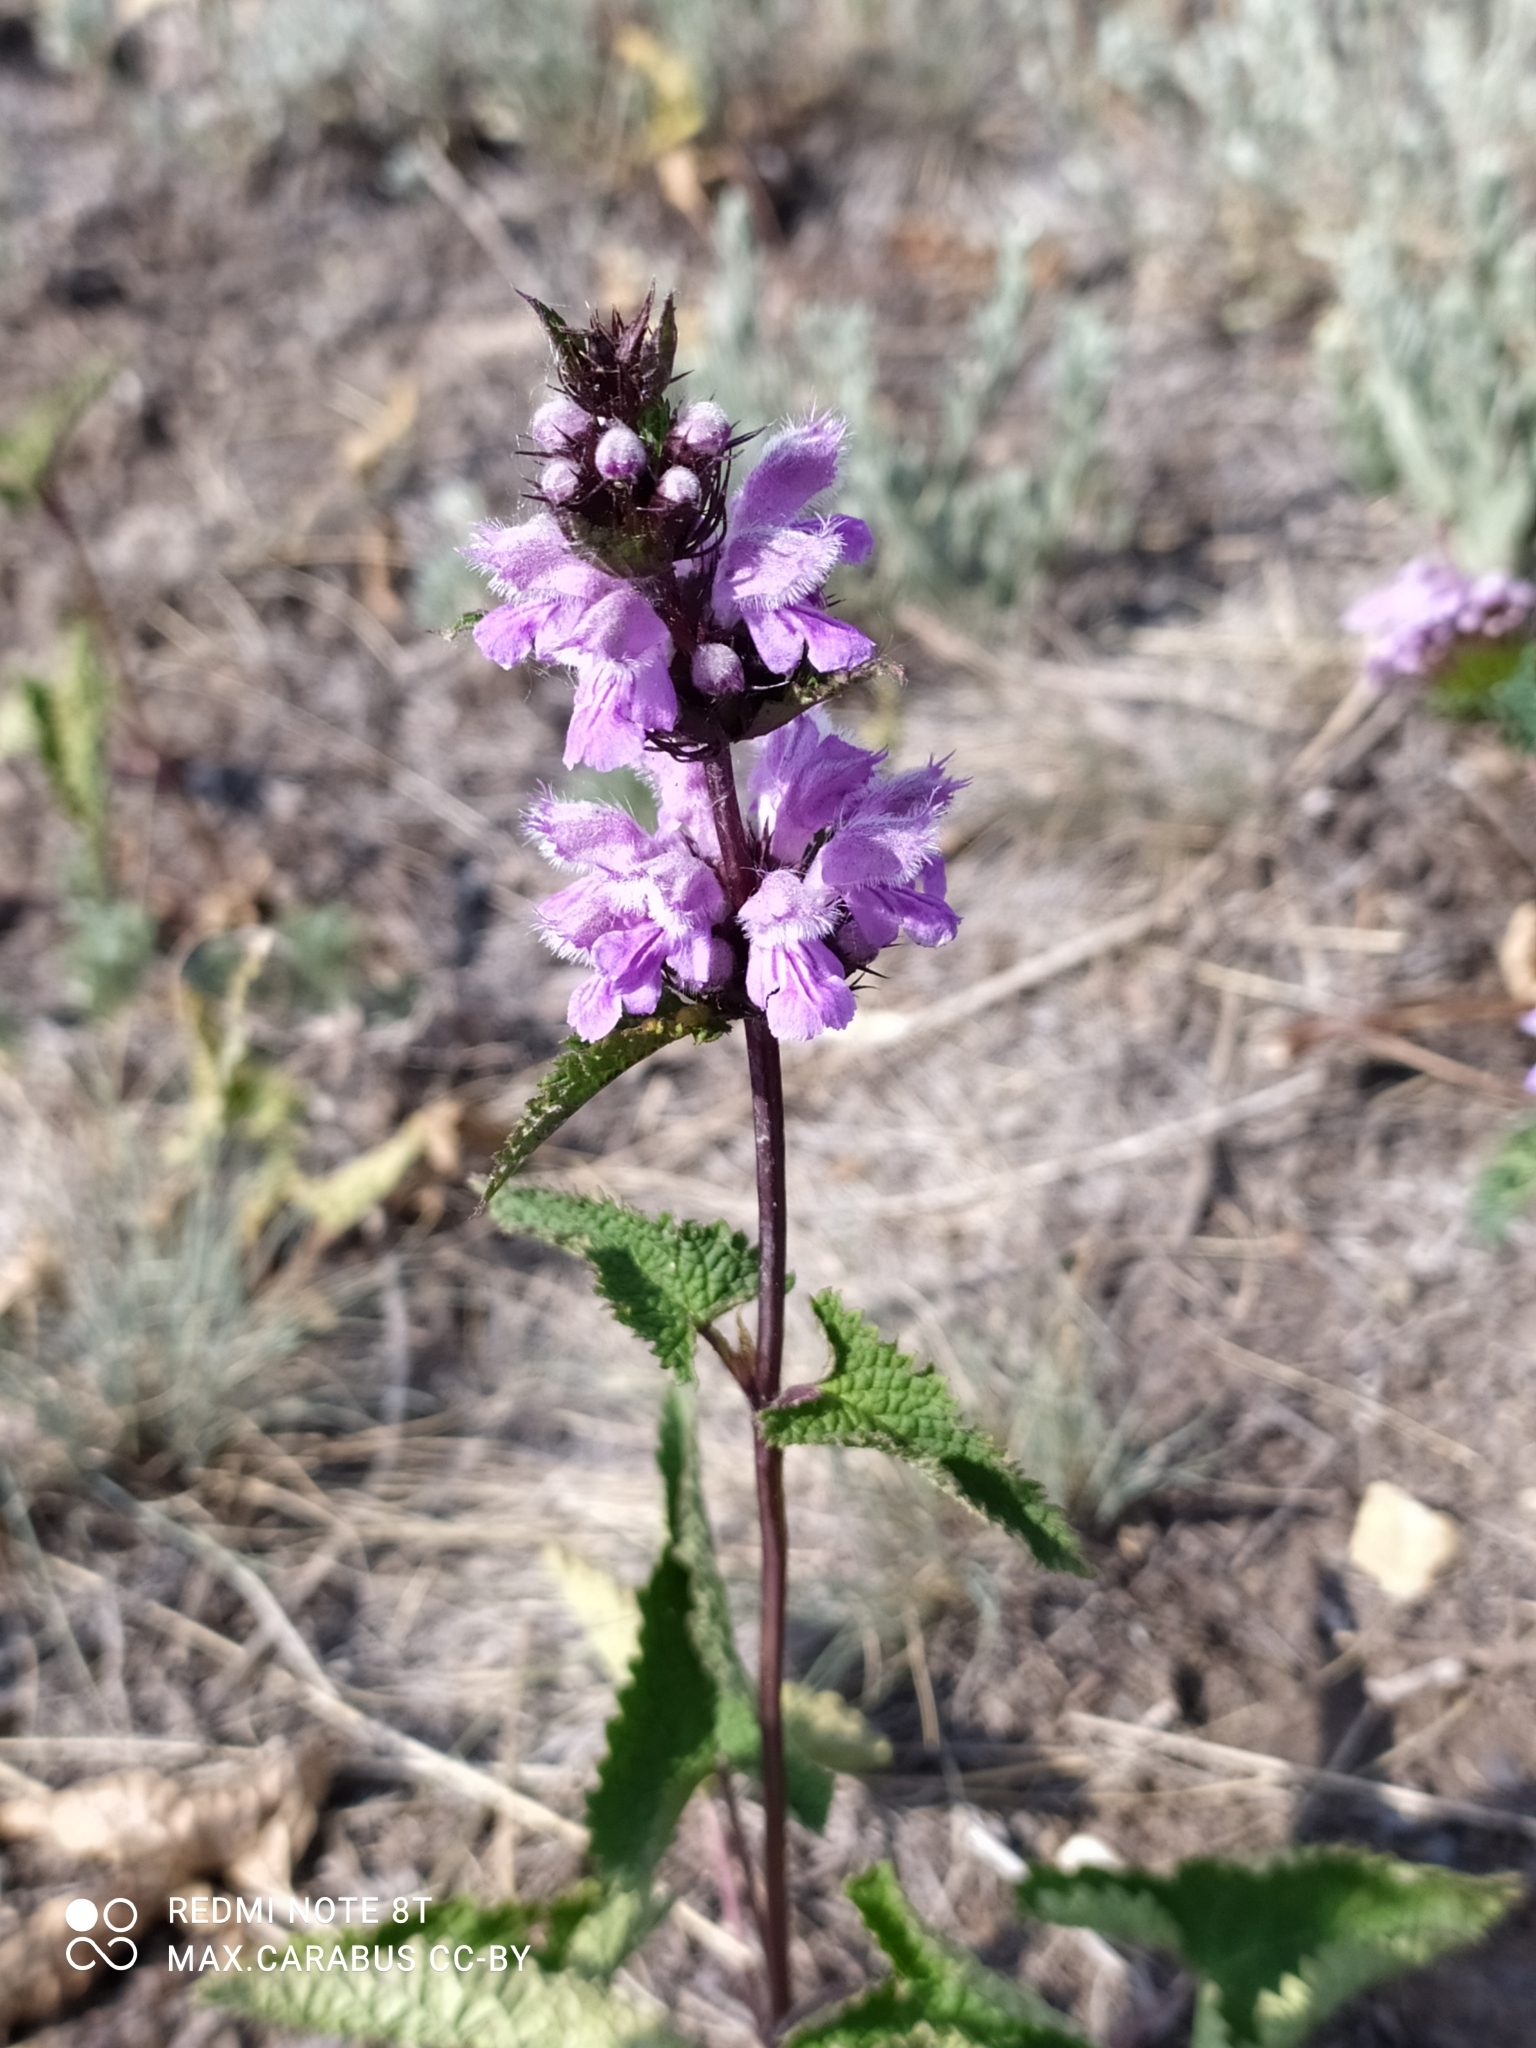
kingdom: Plantae
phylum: Tracheophyta
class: Magnoliopsida
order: Lamiales
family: Lamiaceae
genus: Phlomoides
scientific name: Phlomoides tuberosa
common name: Tuberous jerusalem sage
